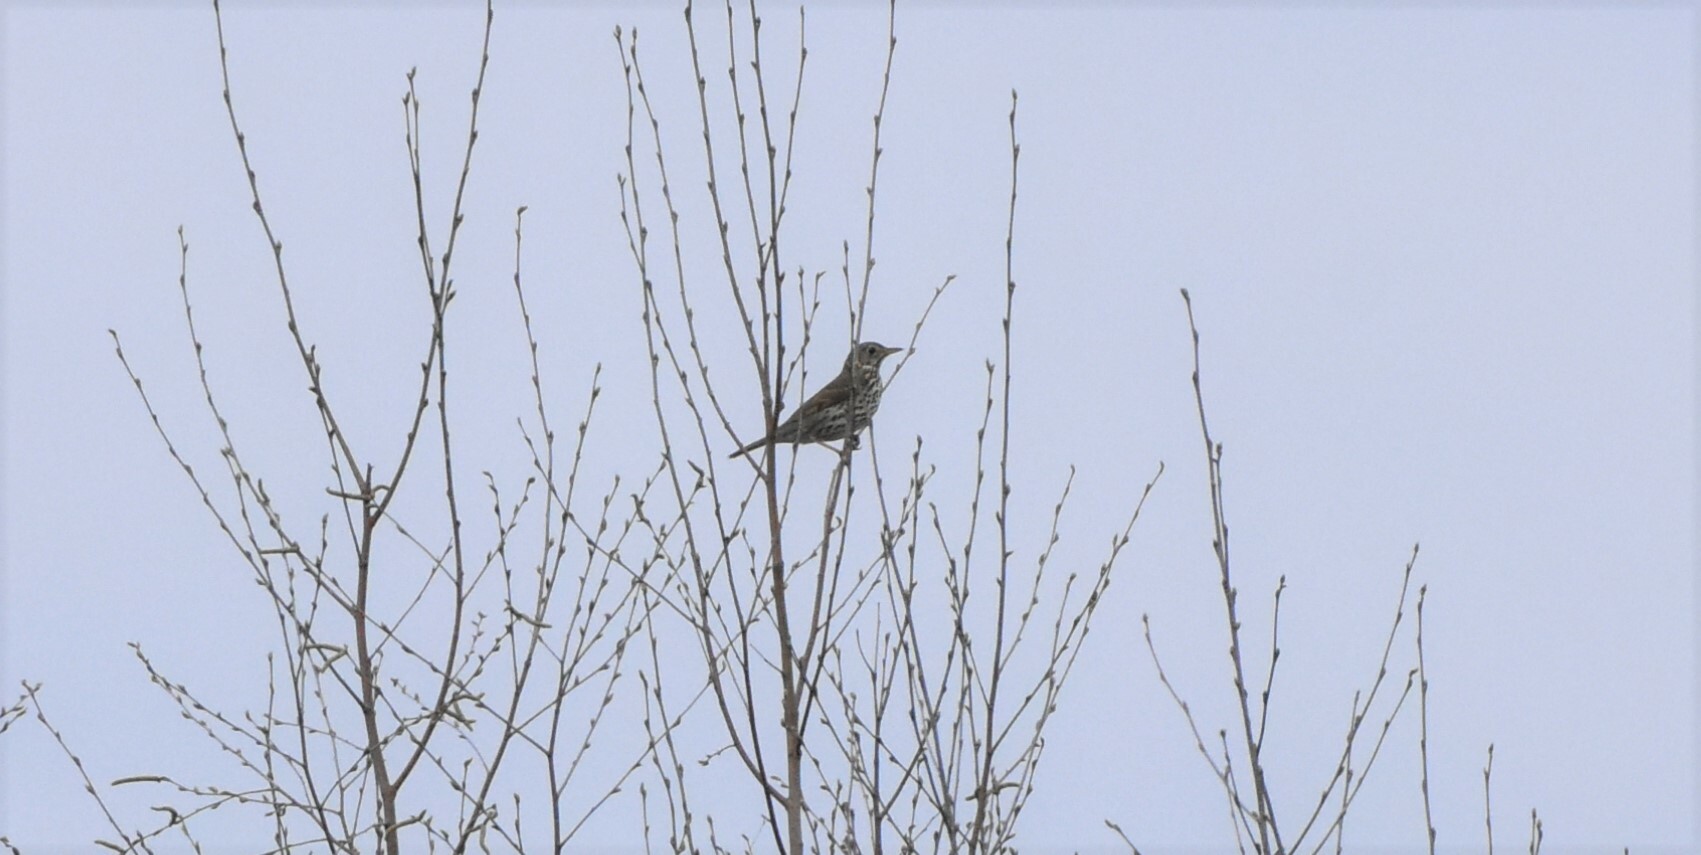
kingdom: Animalia
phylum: Chordata
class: Aves
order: Passeriformes
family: Turdidae
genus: Turdus
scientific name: Turdus philomelos
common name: Song thrush
